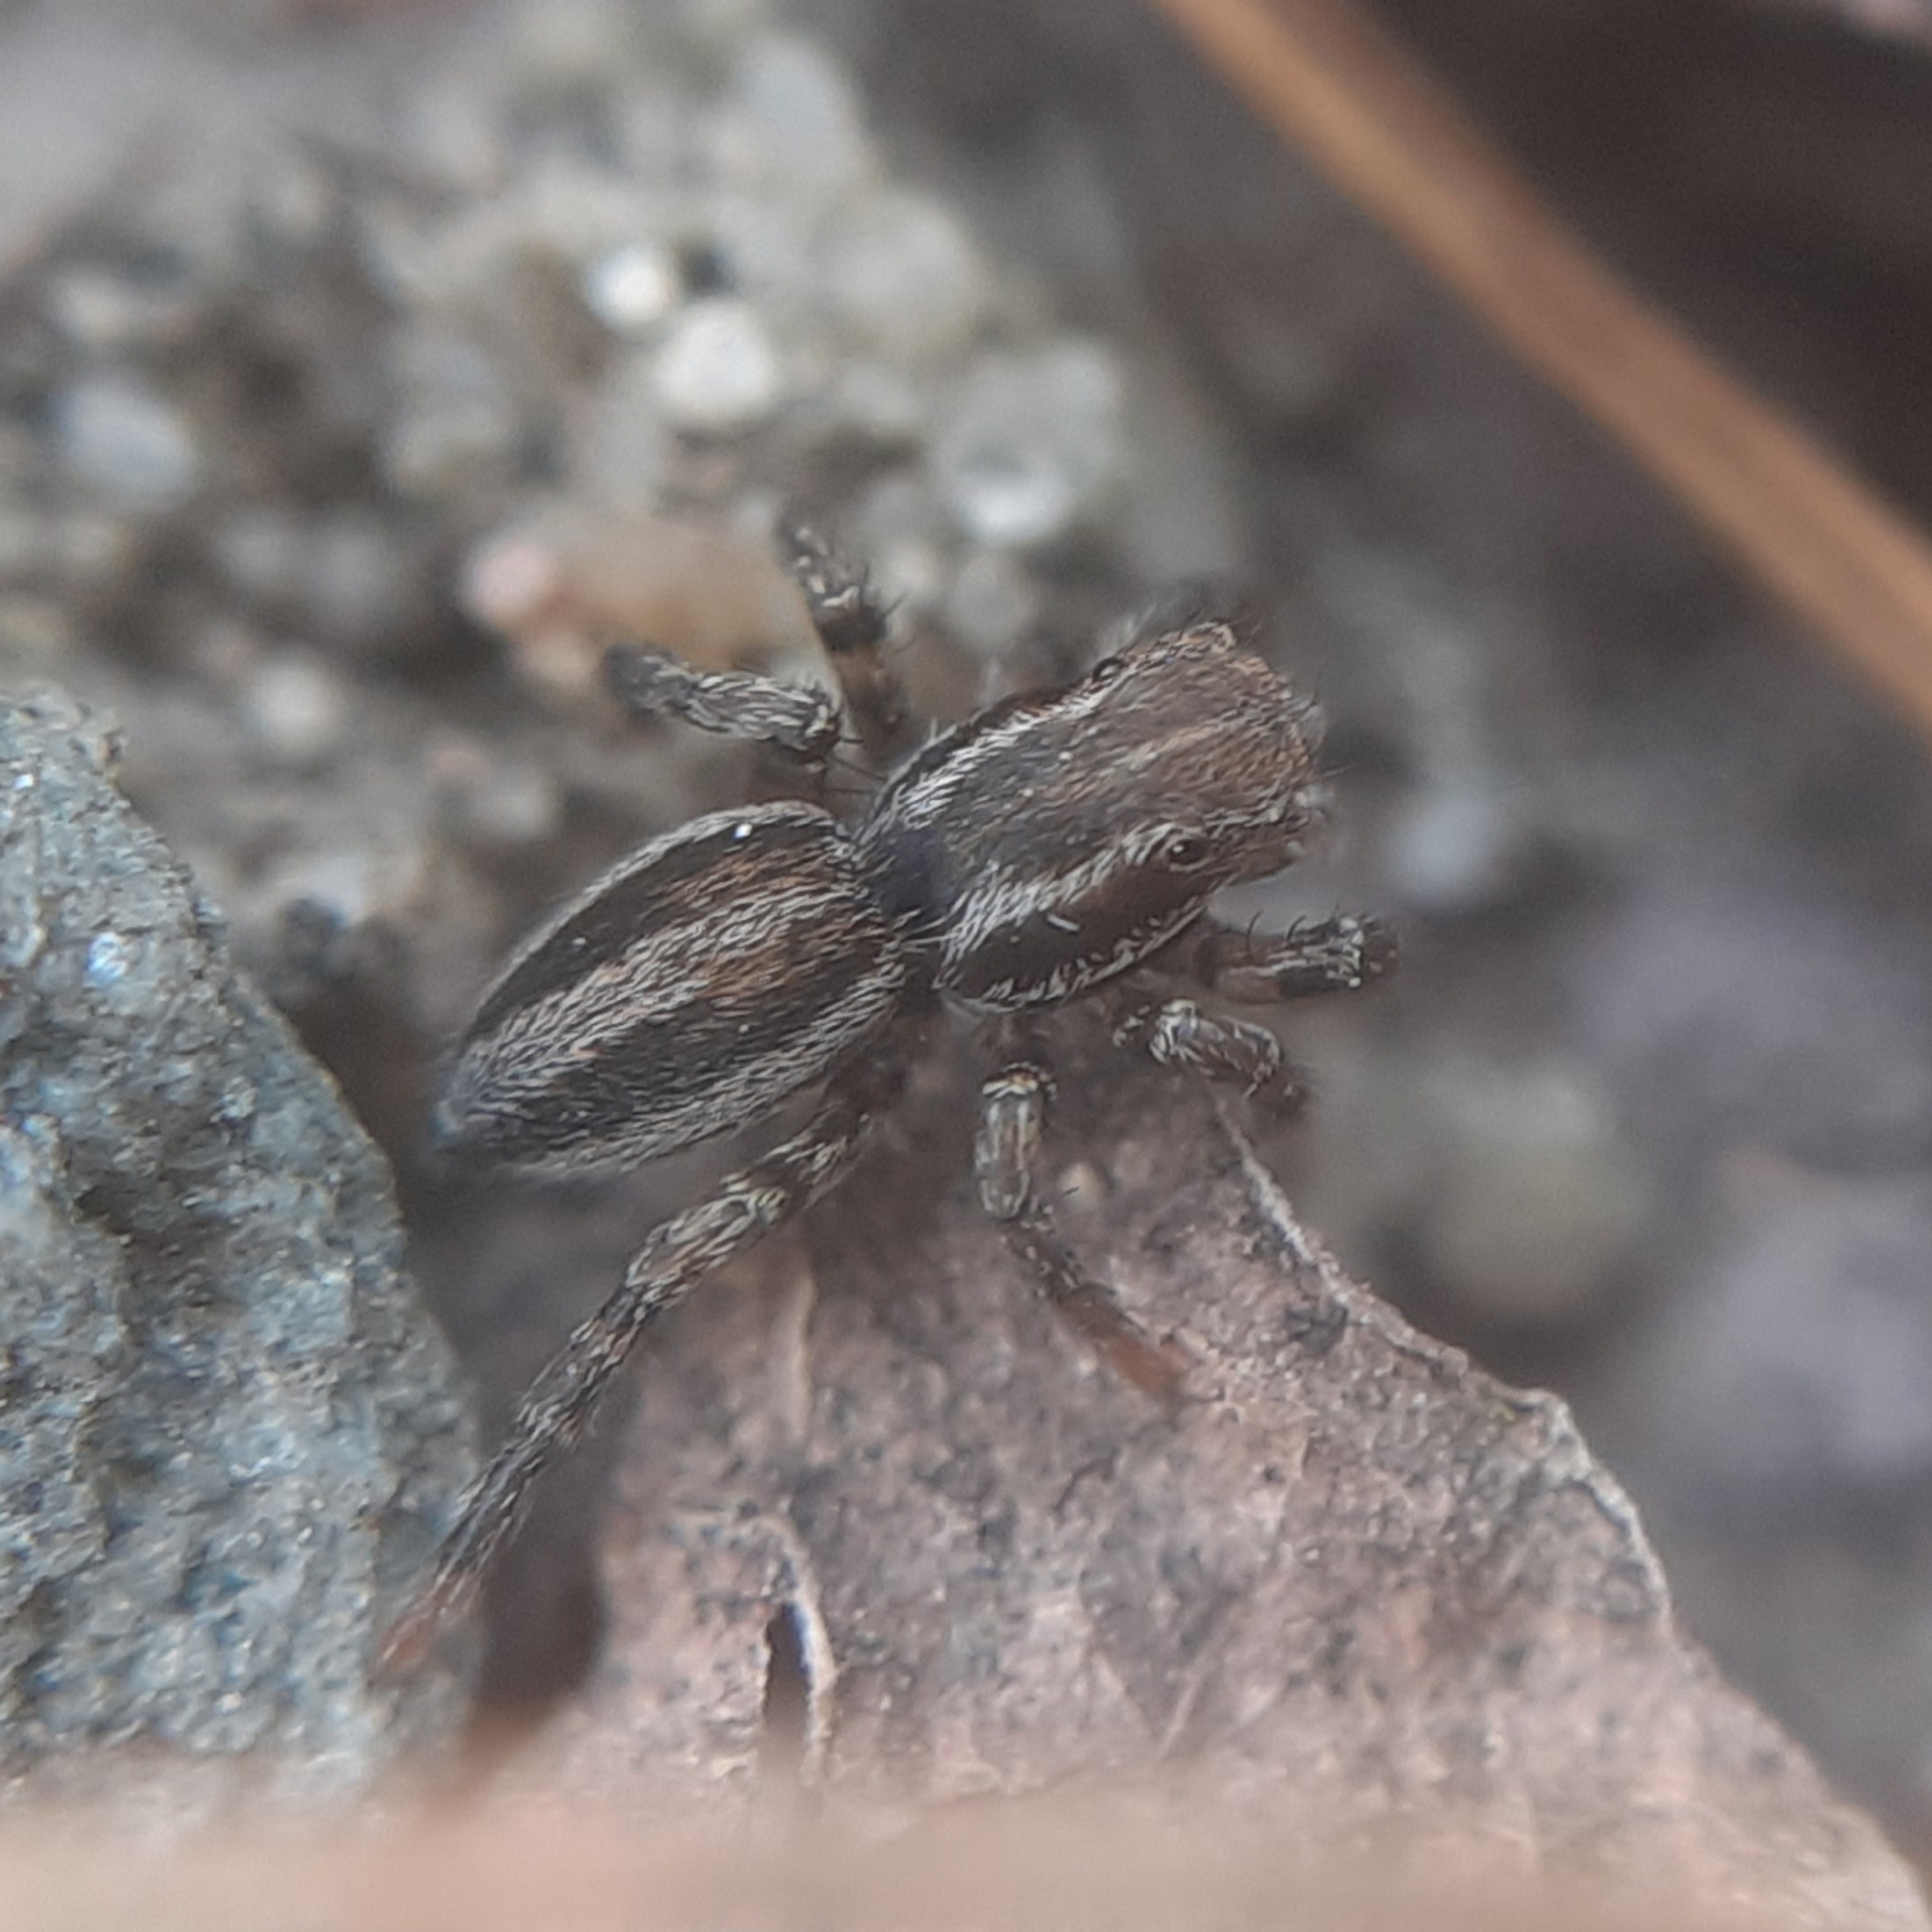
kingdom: Animalia
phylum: Arthropoda
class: Arachnida
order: Araneae
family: Salticidae
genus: Phlegra
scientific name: Phlegra fasciata
